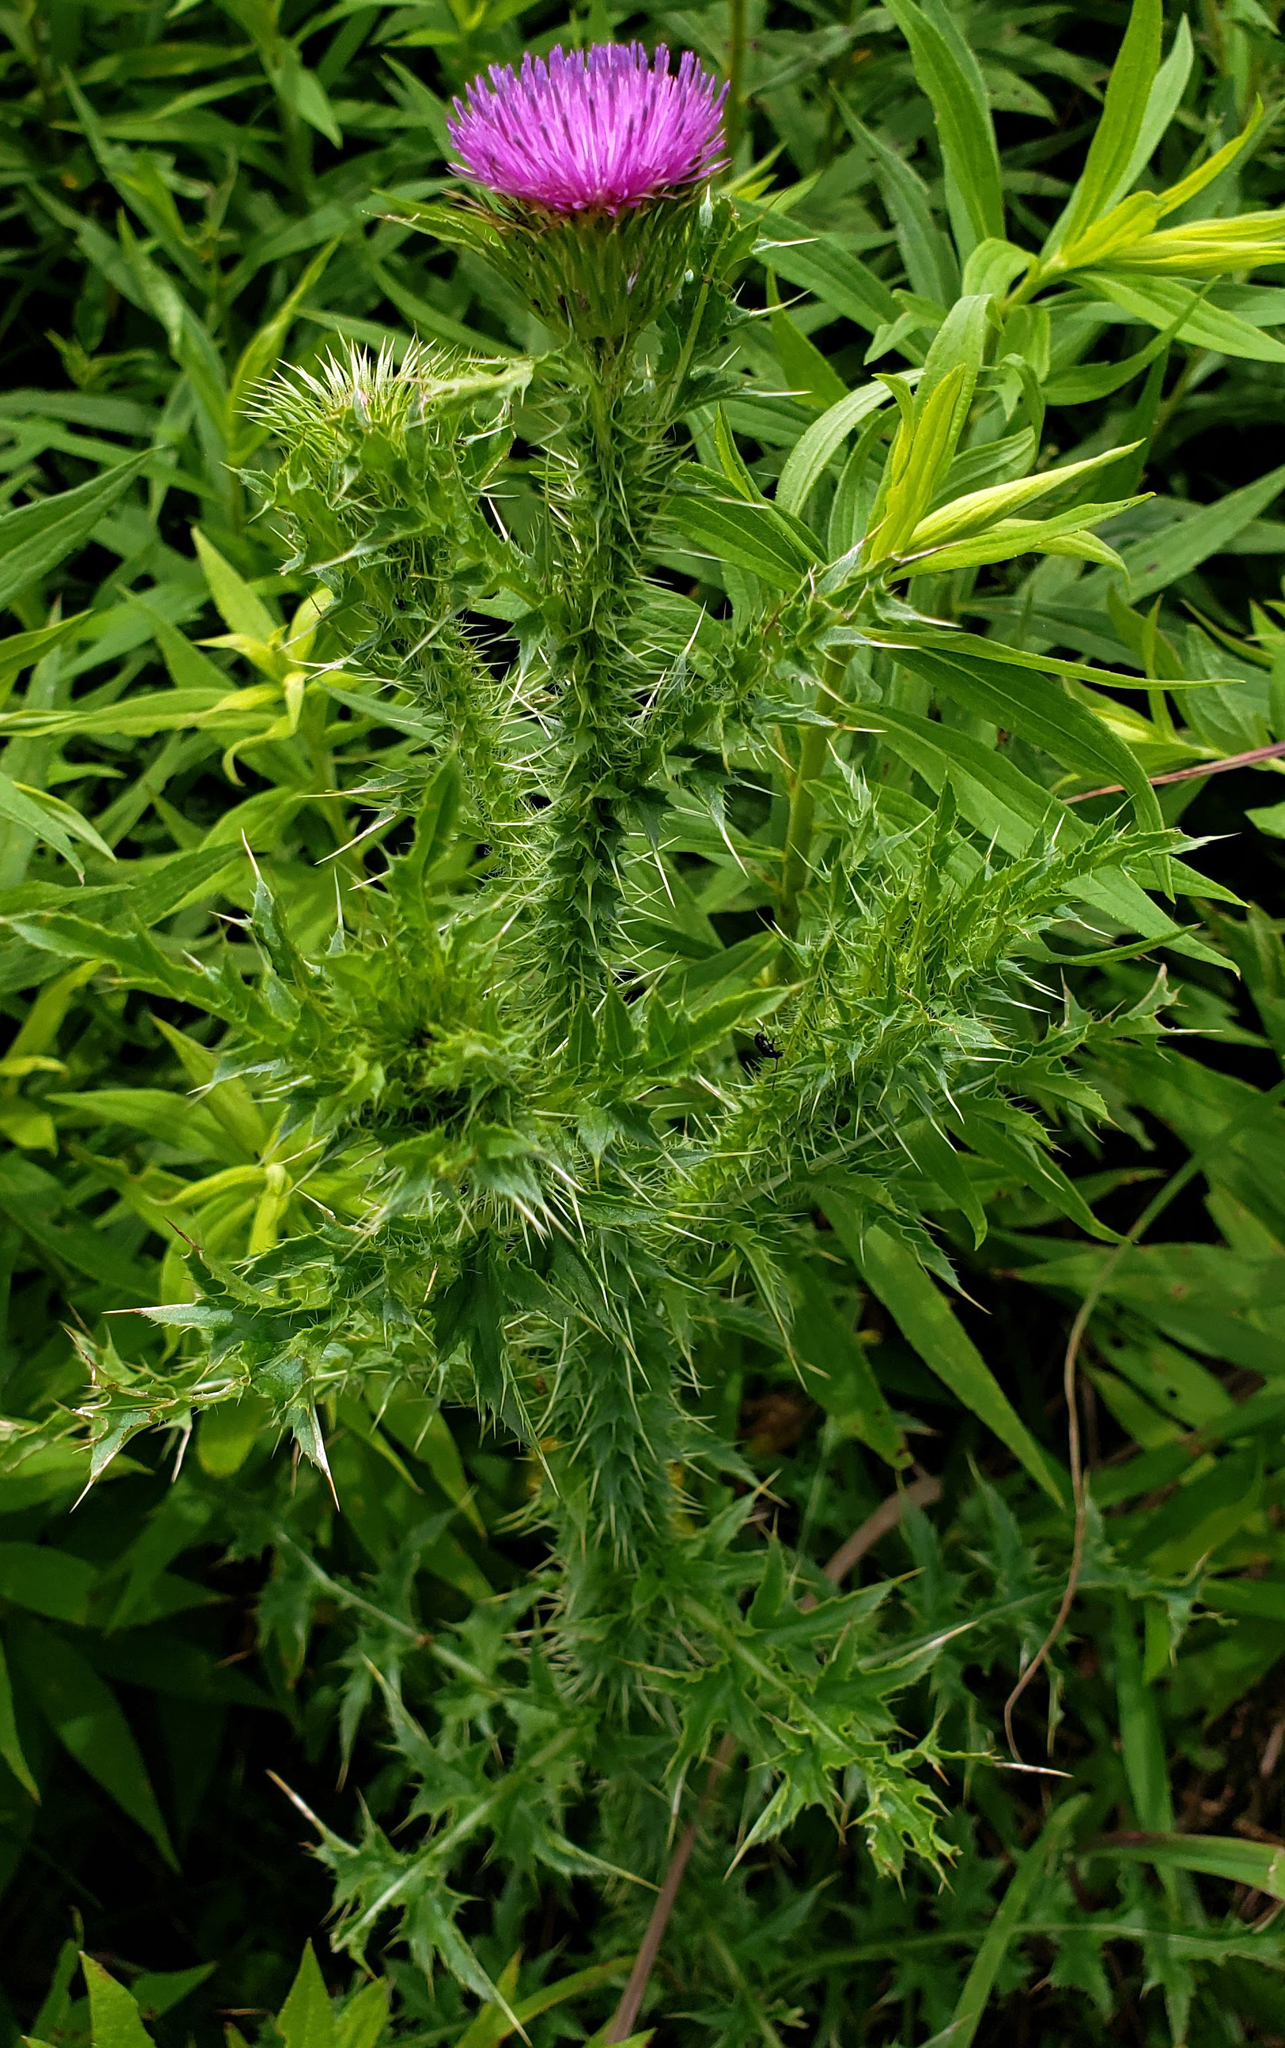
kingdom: Plantae
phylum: Tracheophyta
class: Magnoliopsida
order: Asterales
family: Asteraceae
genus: Carduus
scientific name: Carduus acanthoides
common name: Plumeless thistle
